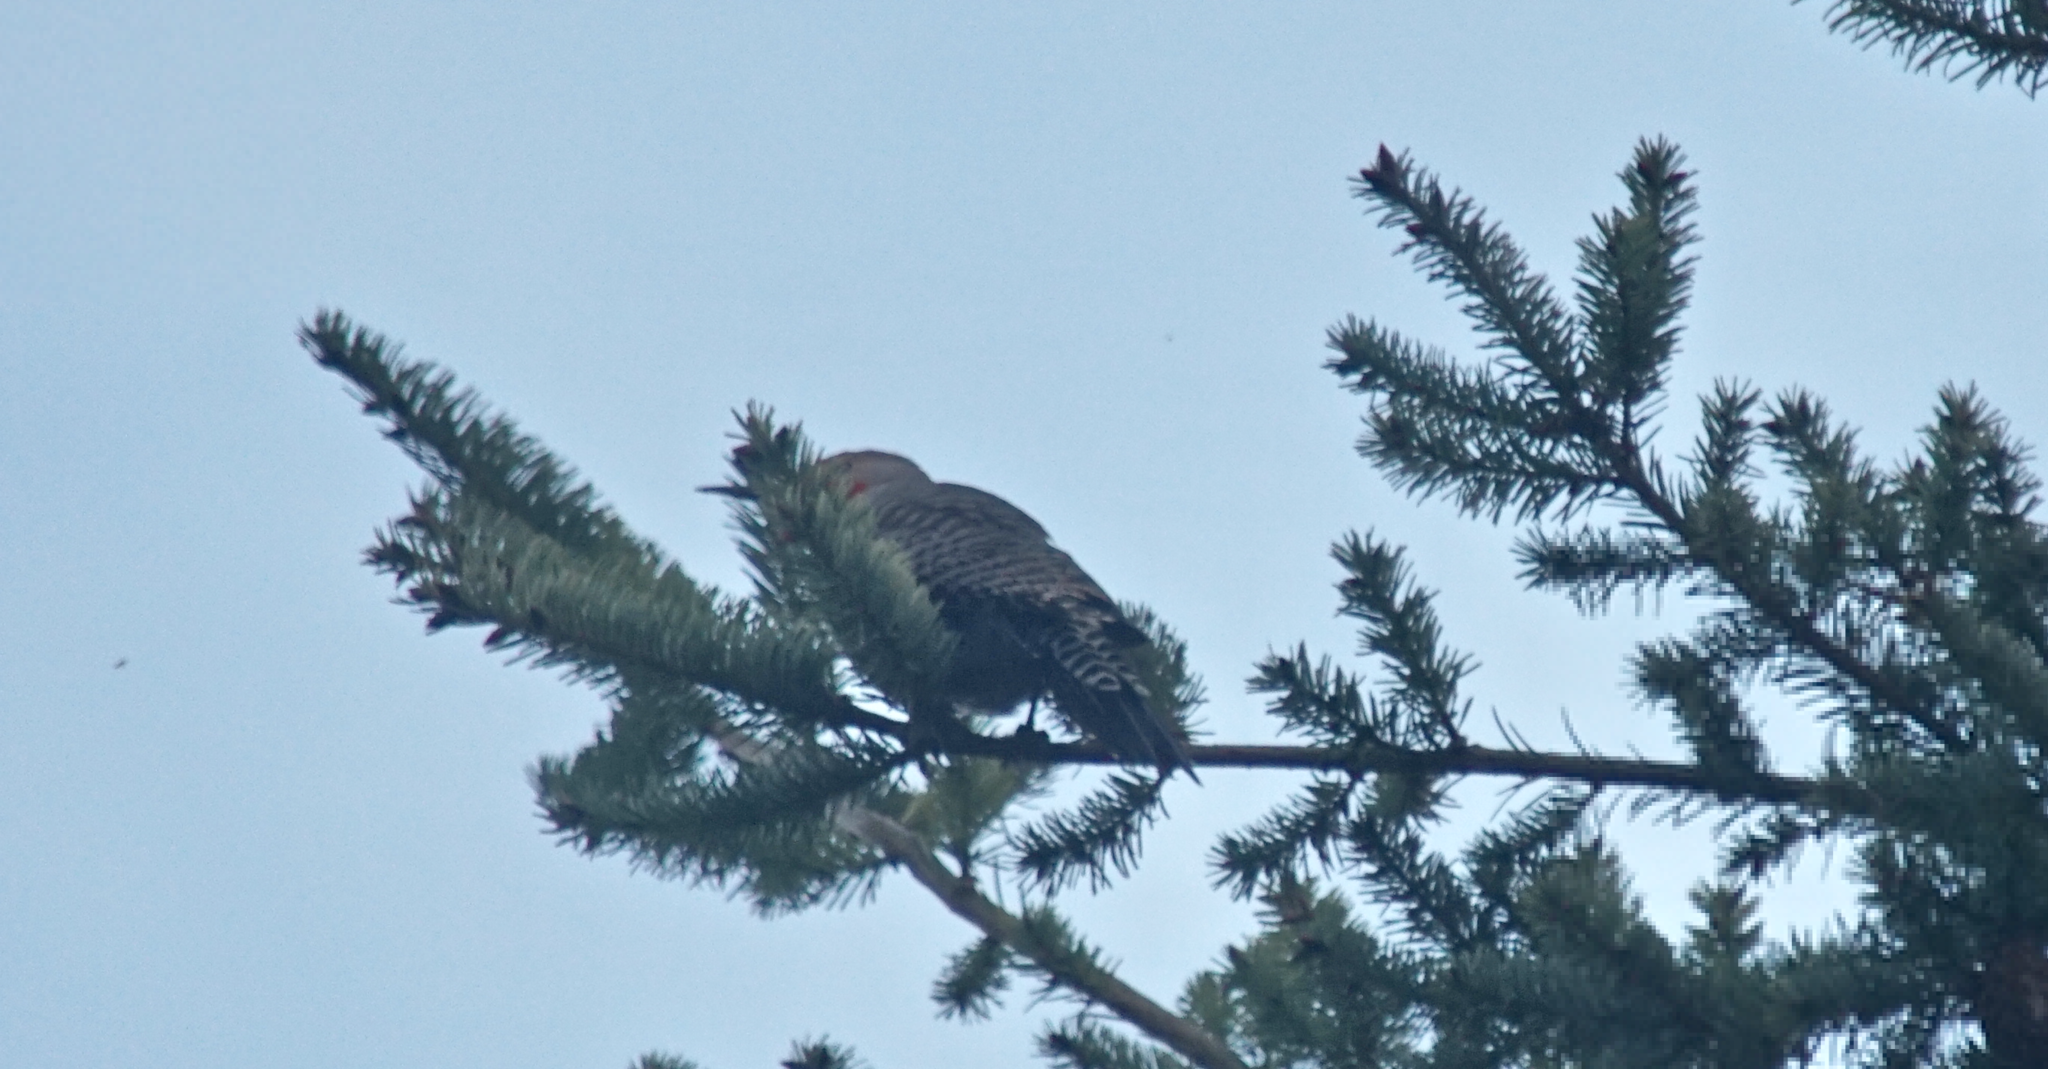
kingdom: Animalia
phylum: Chordata
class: Aves
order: Piciformes
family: Picidae
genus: Colaptes
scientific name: Colaptes auratus
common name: Northern flicker
